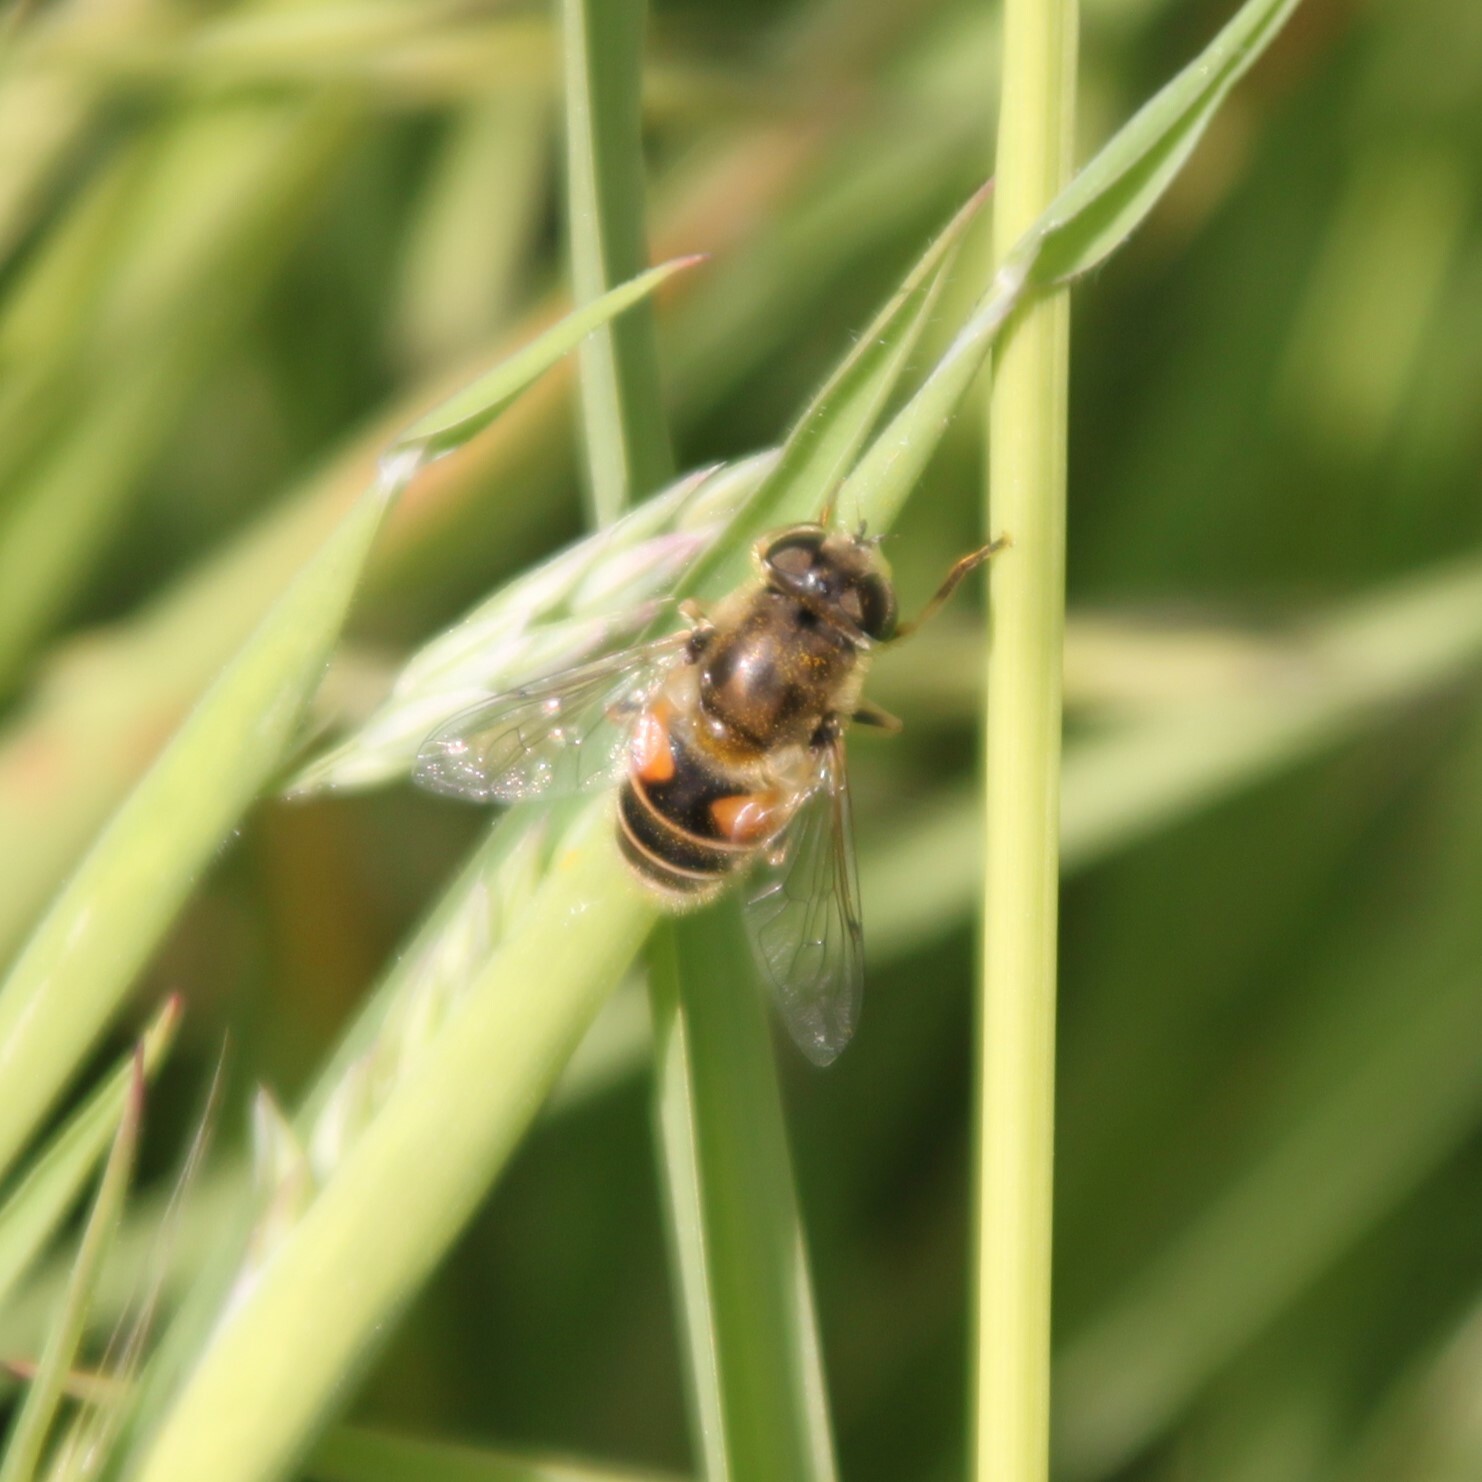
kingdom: Animalia
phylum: Arthropoda
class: Insecta
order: Diptera
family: Syrphidae
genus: Eristalis
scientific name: Eristalis arbustorum
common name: Hover fly
